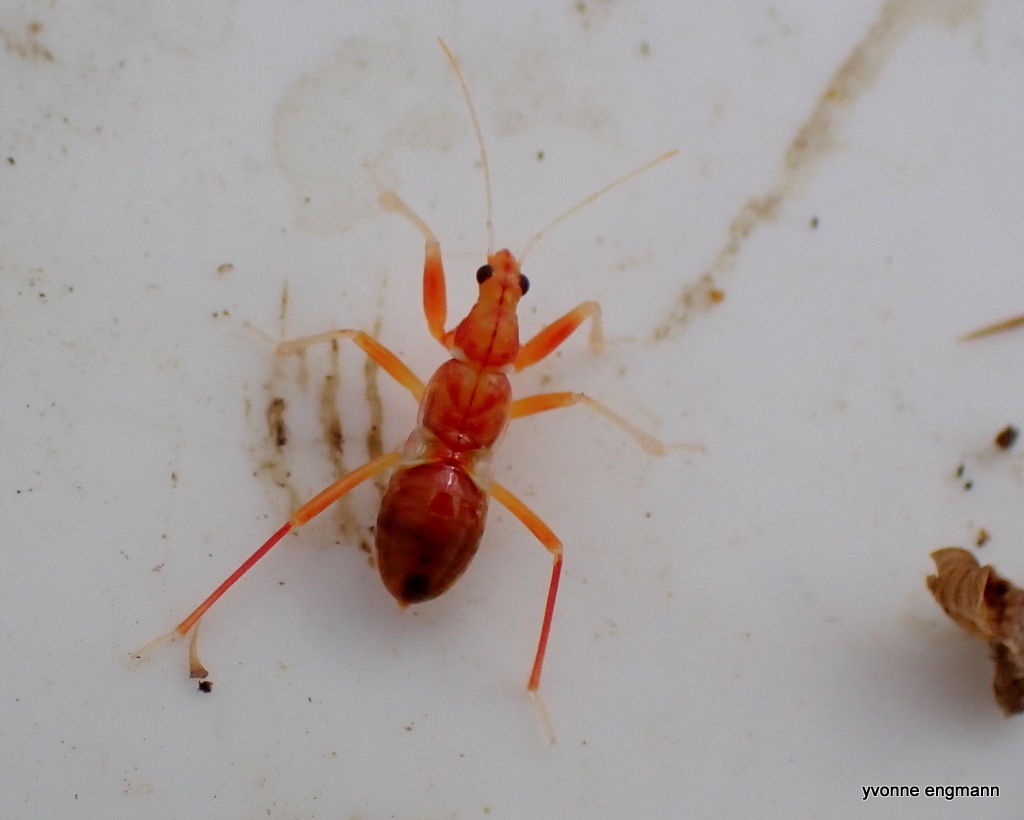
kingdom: Animalia
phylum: Arthropoda
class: Insecta
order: Hemiptera
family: Nabidae
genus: Himacerus
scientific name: Himacerus mirmicoides
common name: Ant damsel bug
